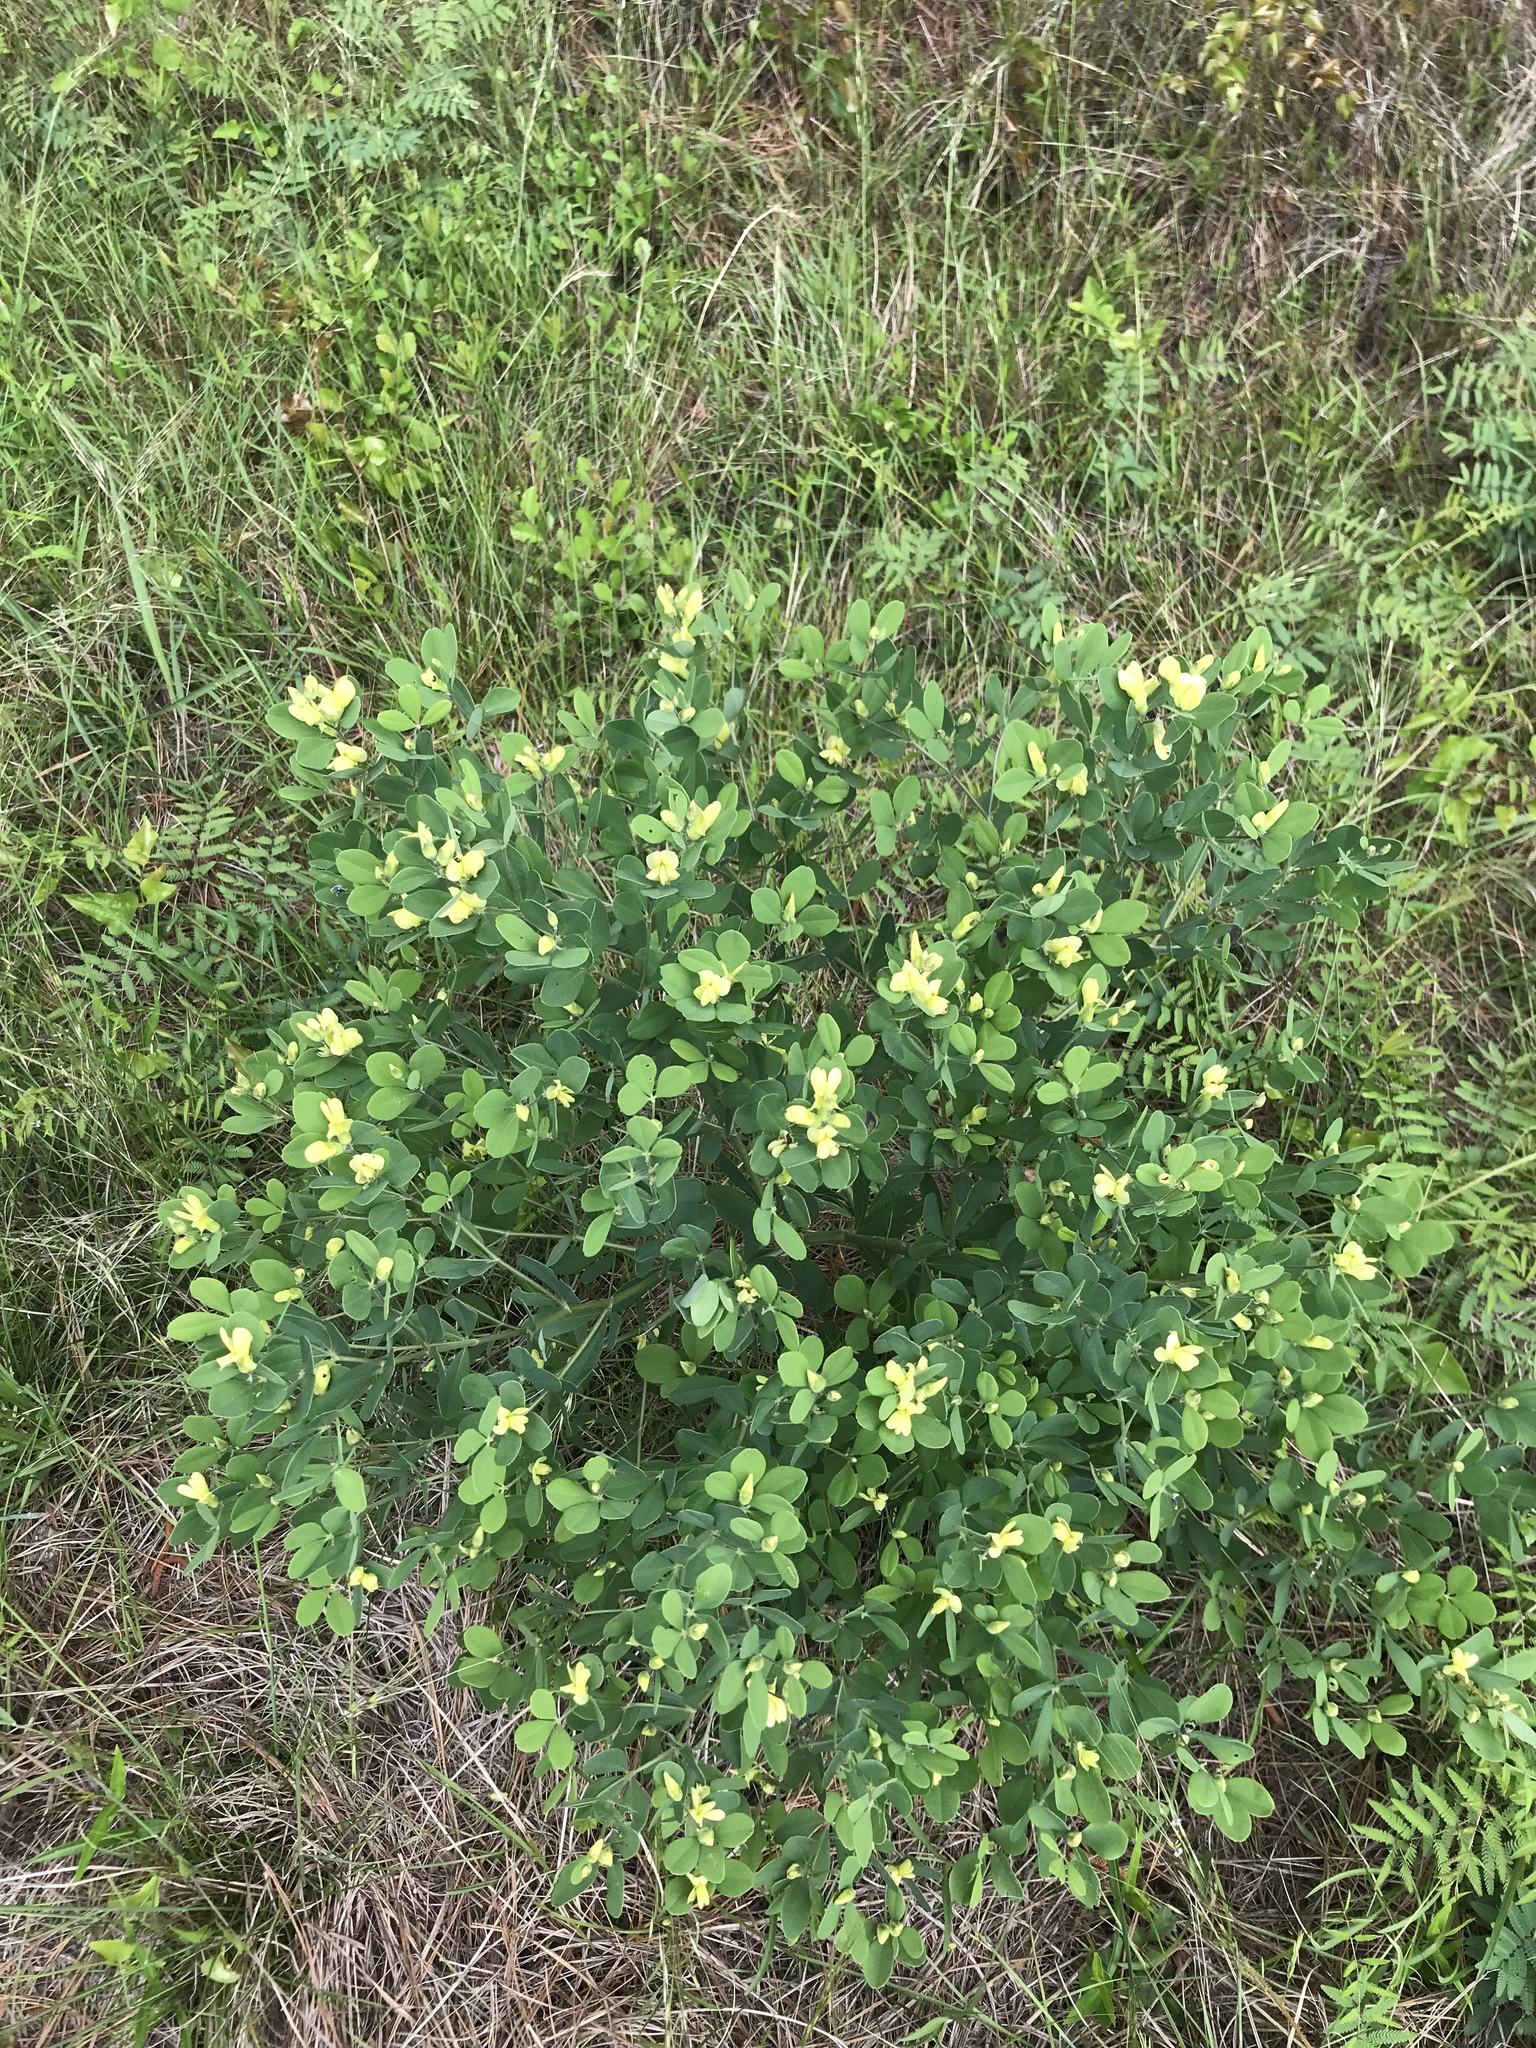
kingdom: Plantae
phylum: Tracheophyta
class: Magnoliopsida
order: Fabales
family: Fabaceae
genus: Baptisia
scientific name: Baptisia nuttalliana
